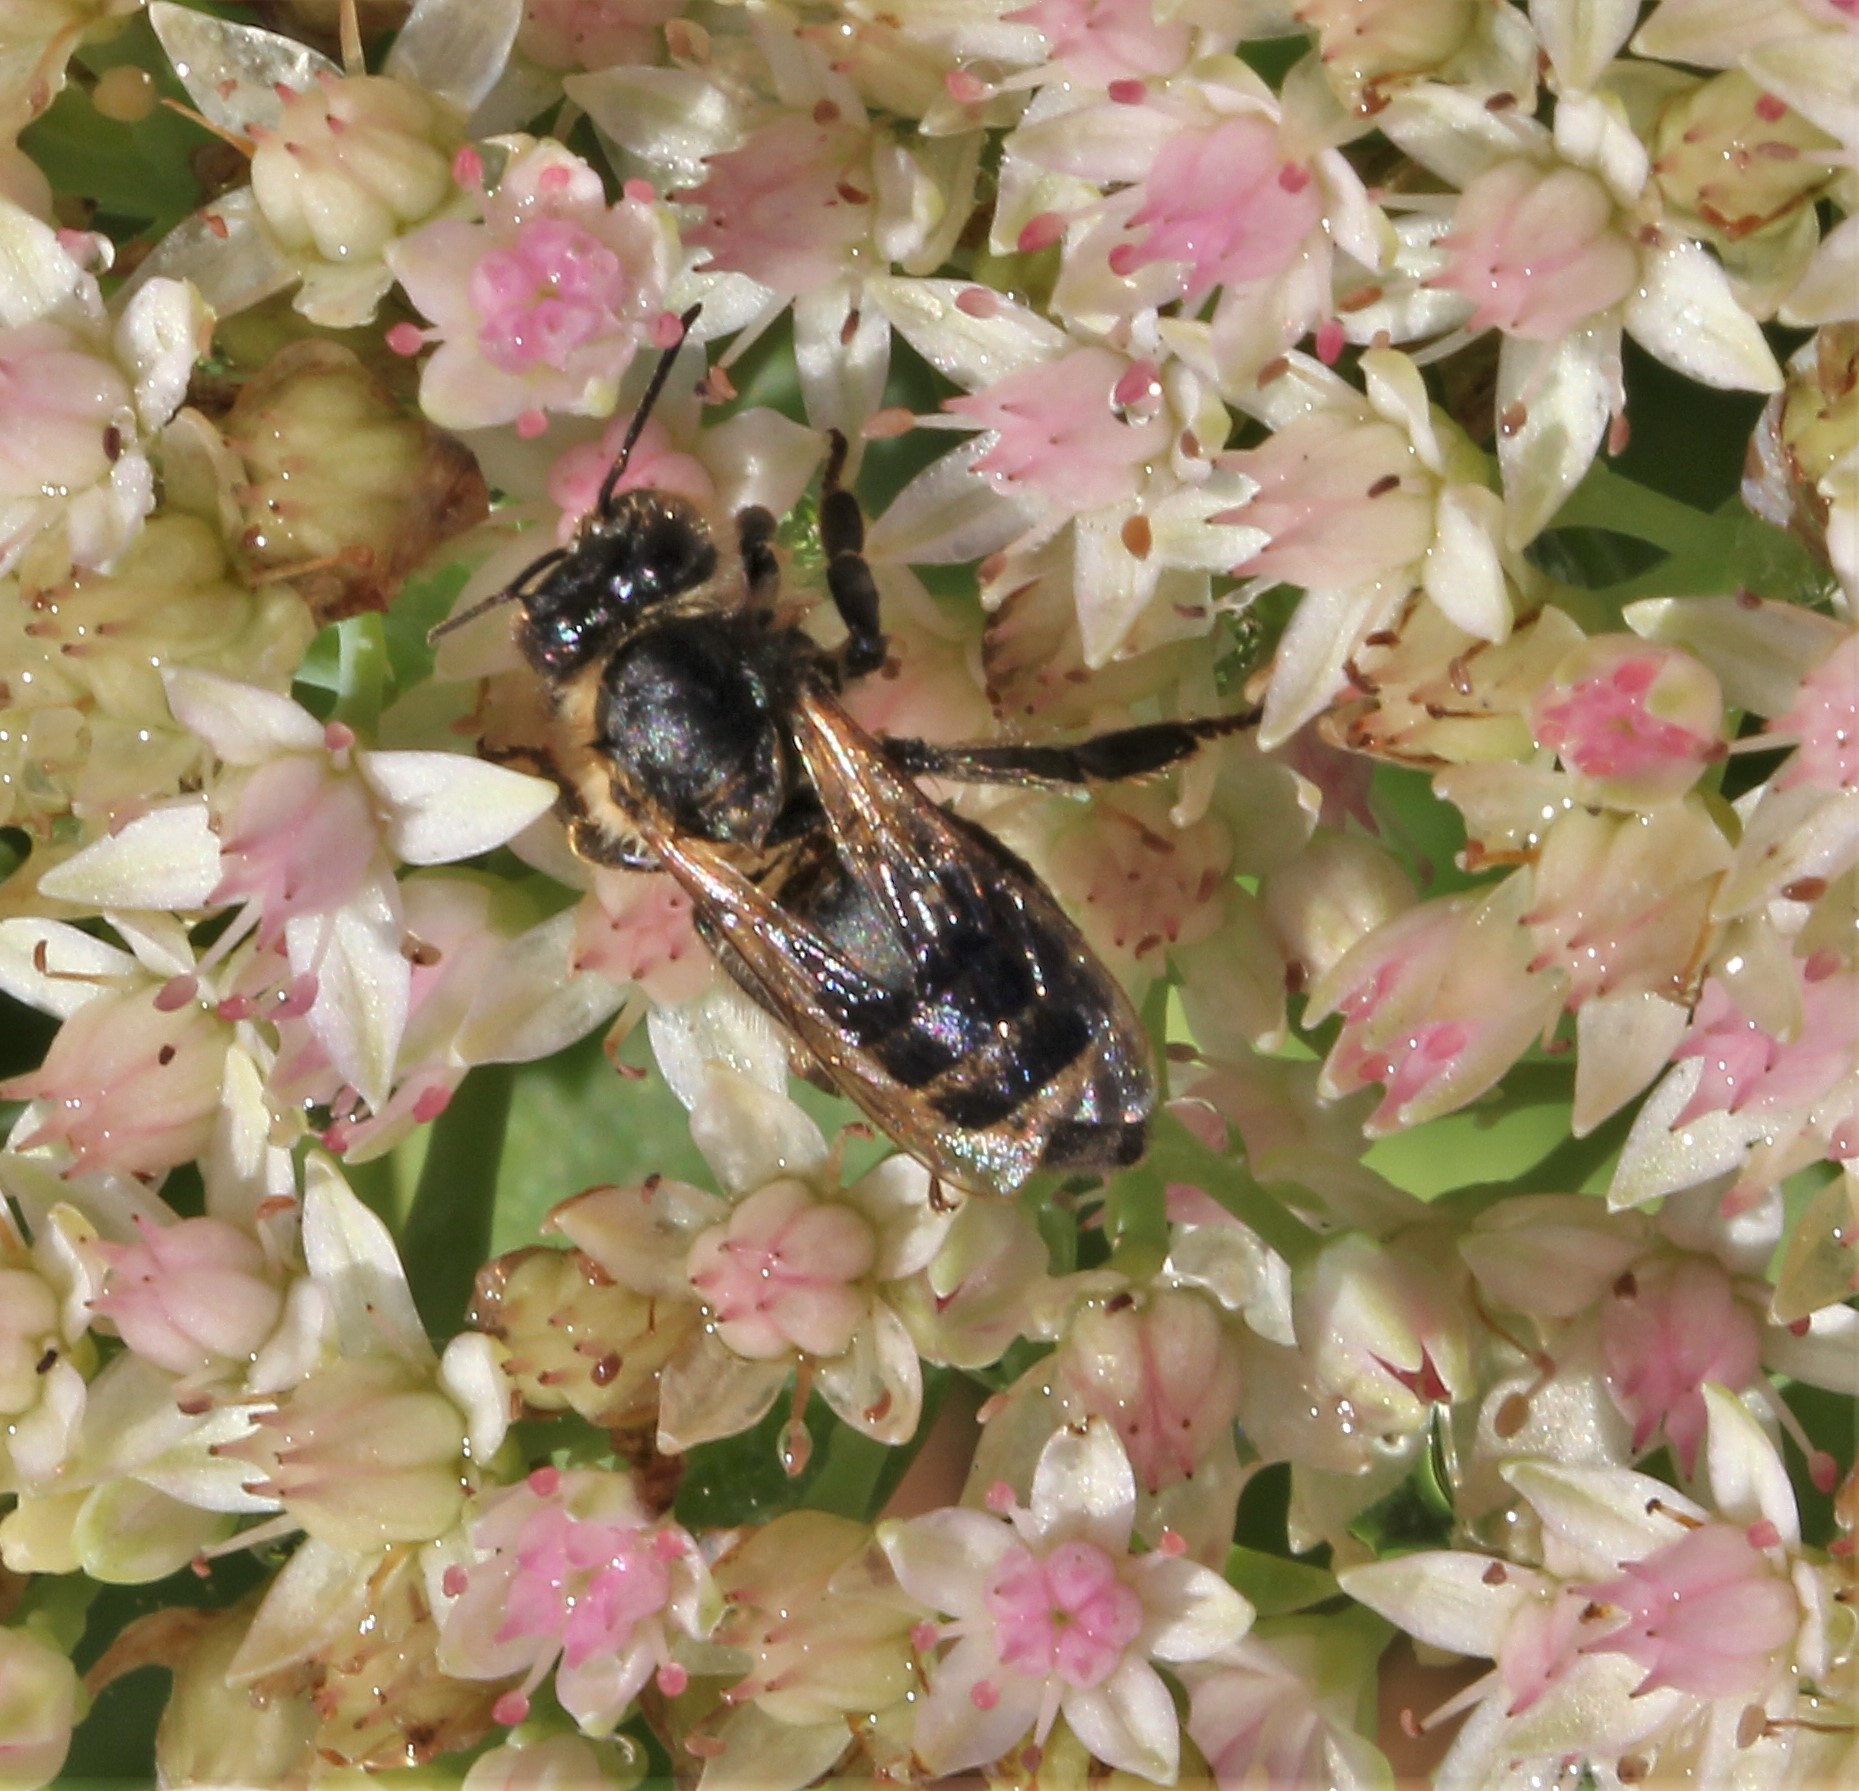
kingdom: Animalia
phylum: Arthropoda
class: Insecta
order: Hymenoptera
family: Apidae
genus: Apis
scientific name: Apis mellifera
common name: Honey bee
